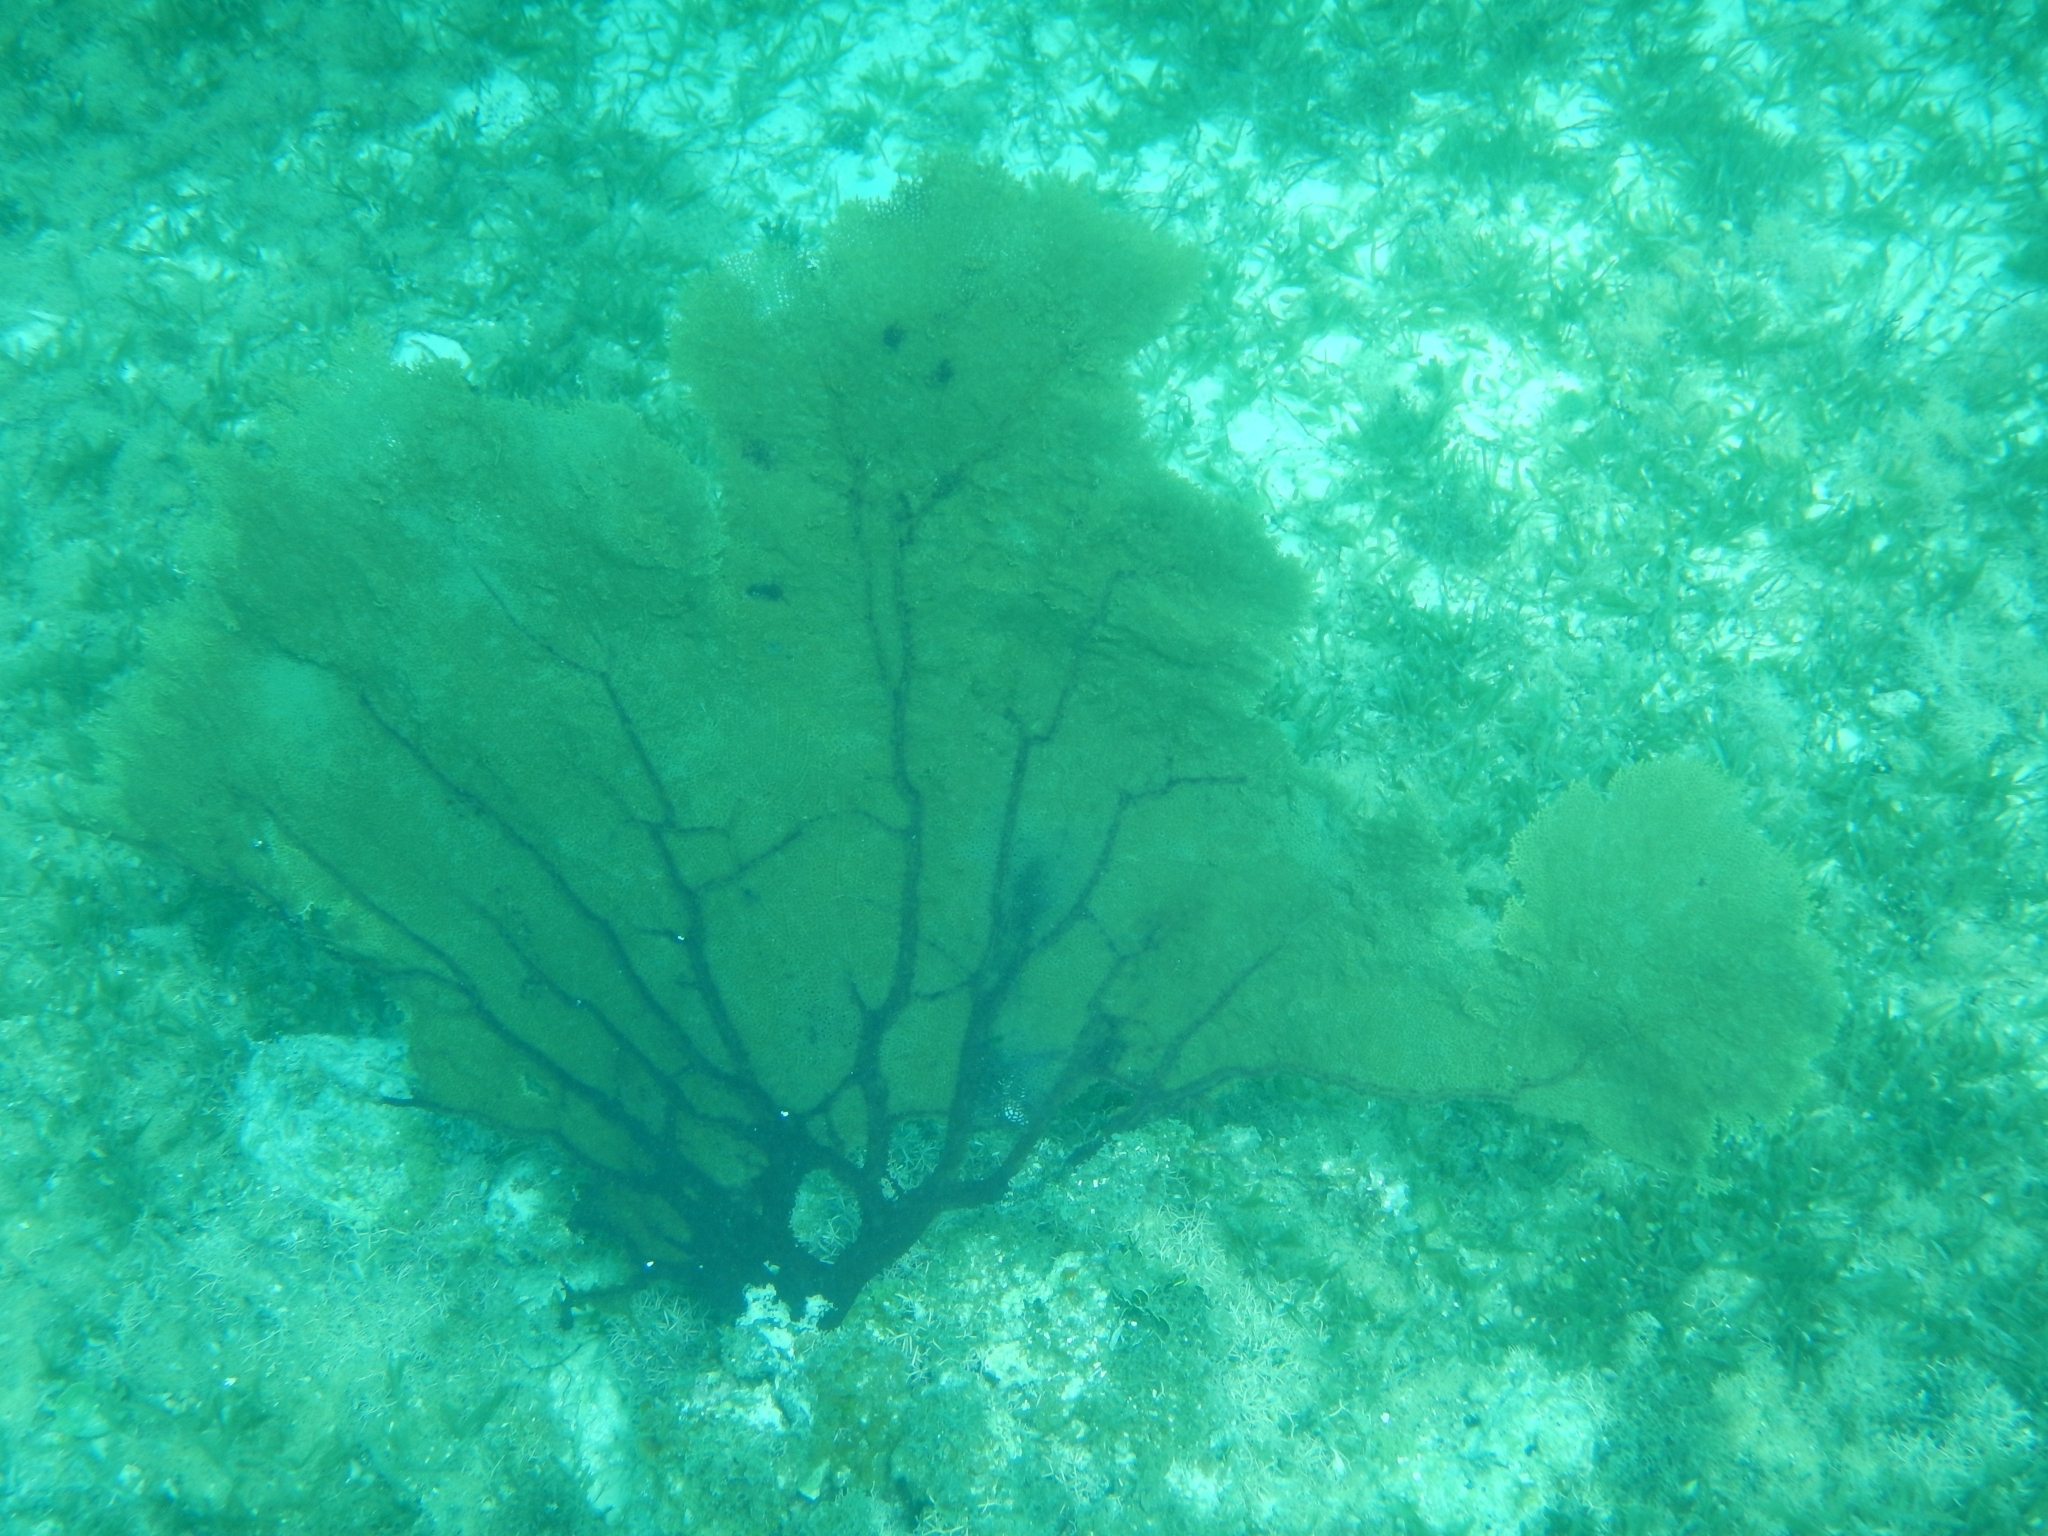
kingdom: Animalia
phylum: Cnidaria
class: Anthozoa
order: Malacalcyonacea
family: Gorgoniidae
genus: Gorgonia
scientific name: Gorgonia ventalina
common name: Common sea fan
